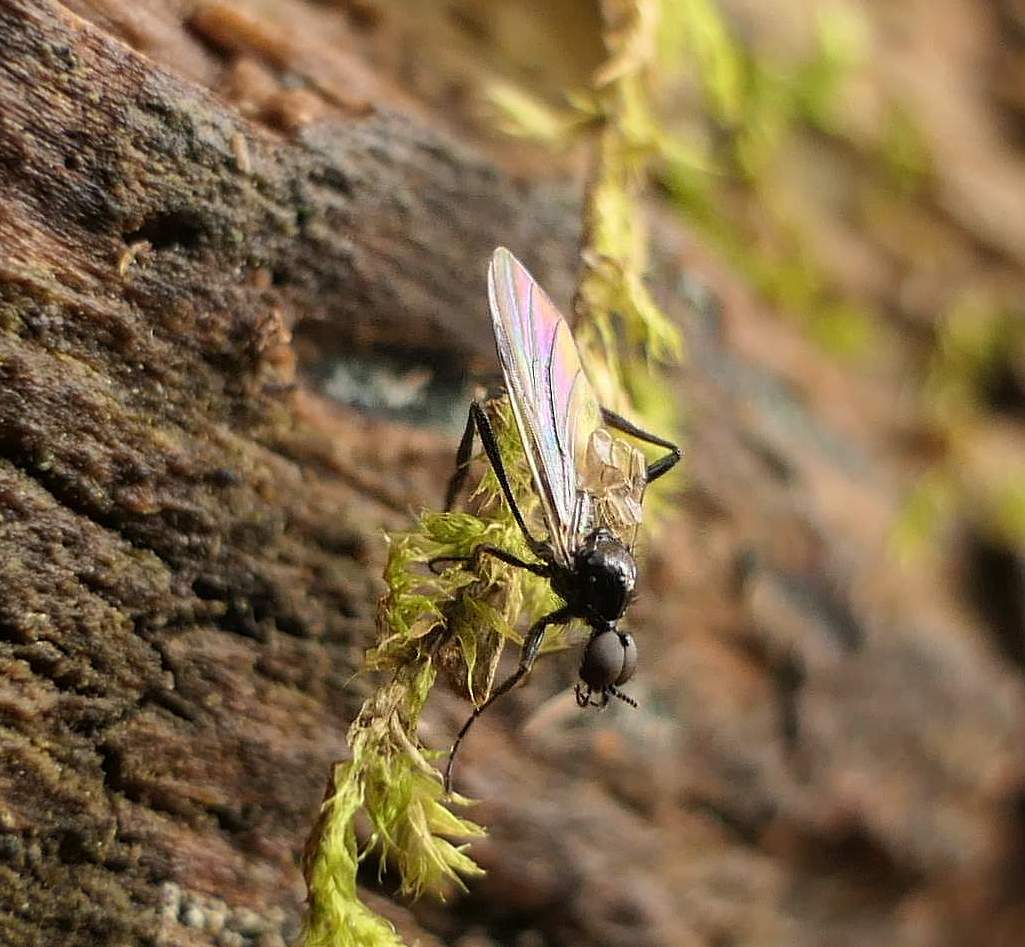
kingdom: Animalia
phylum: Arthropoda
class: Insecta
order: Diptera
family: Bibionidae
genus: Bibio
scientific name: Bibio slossonae
